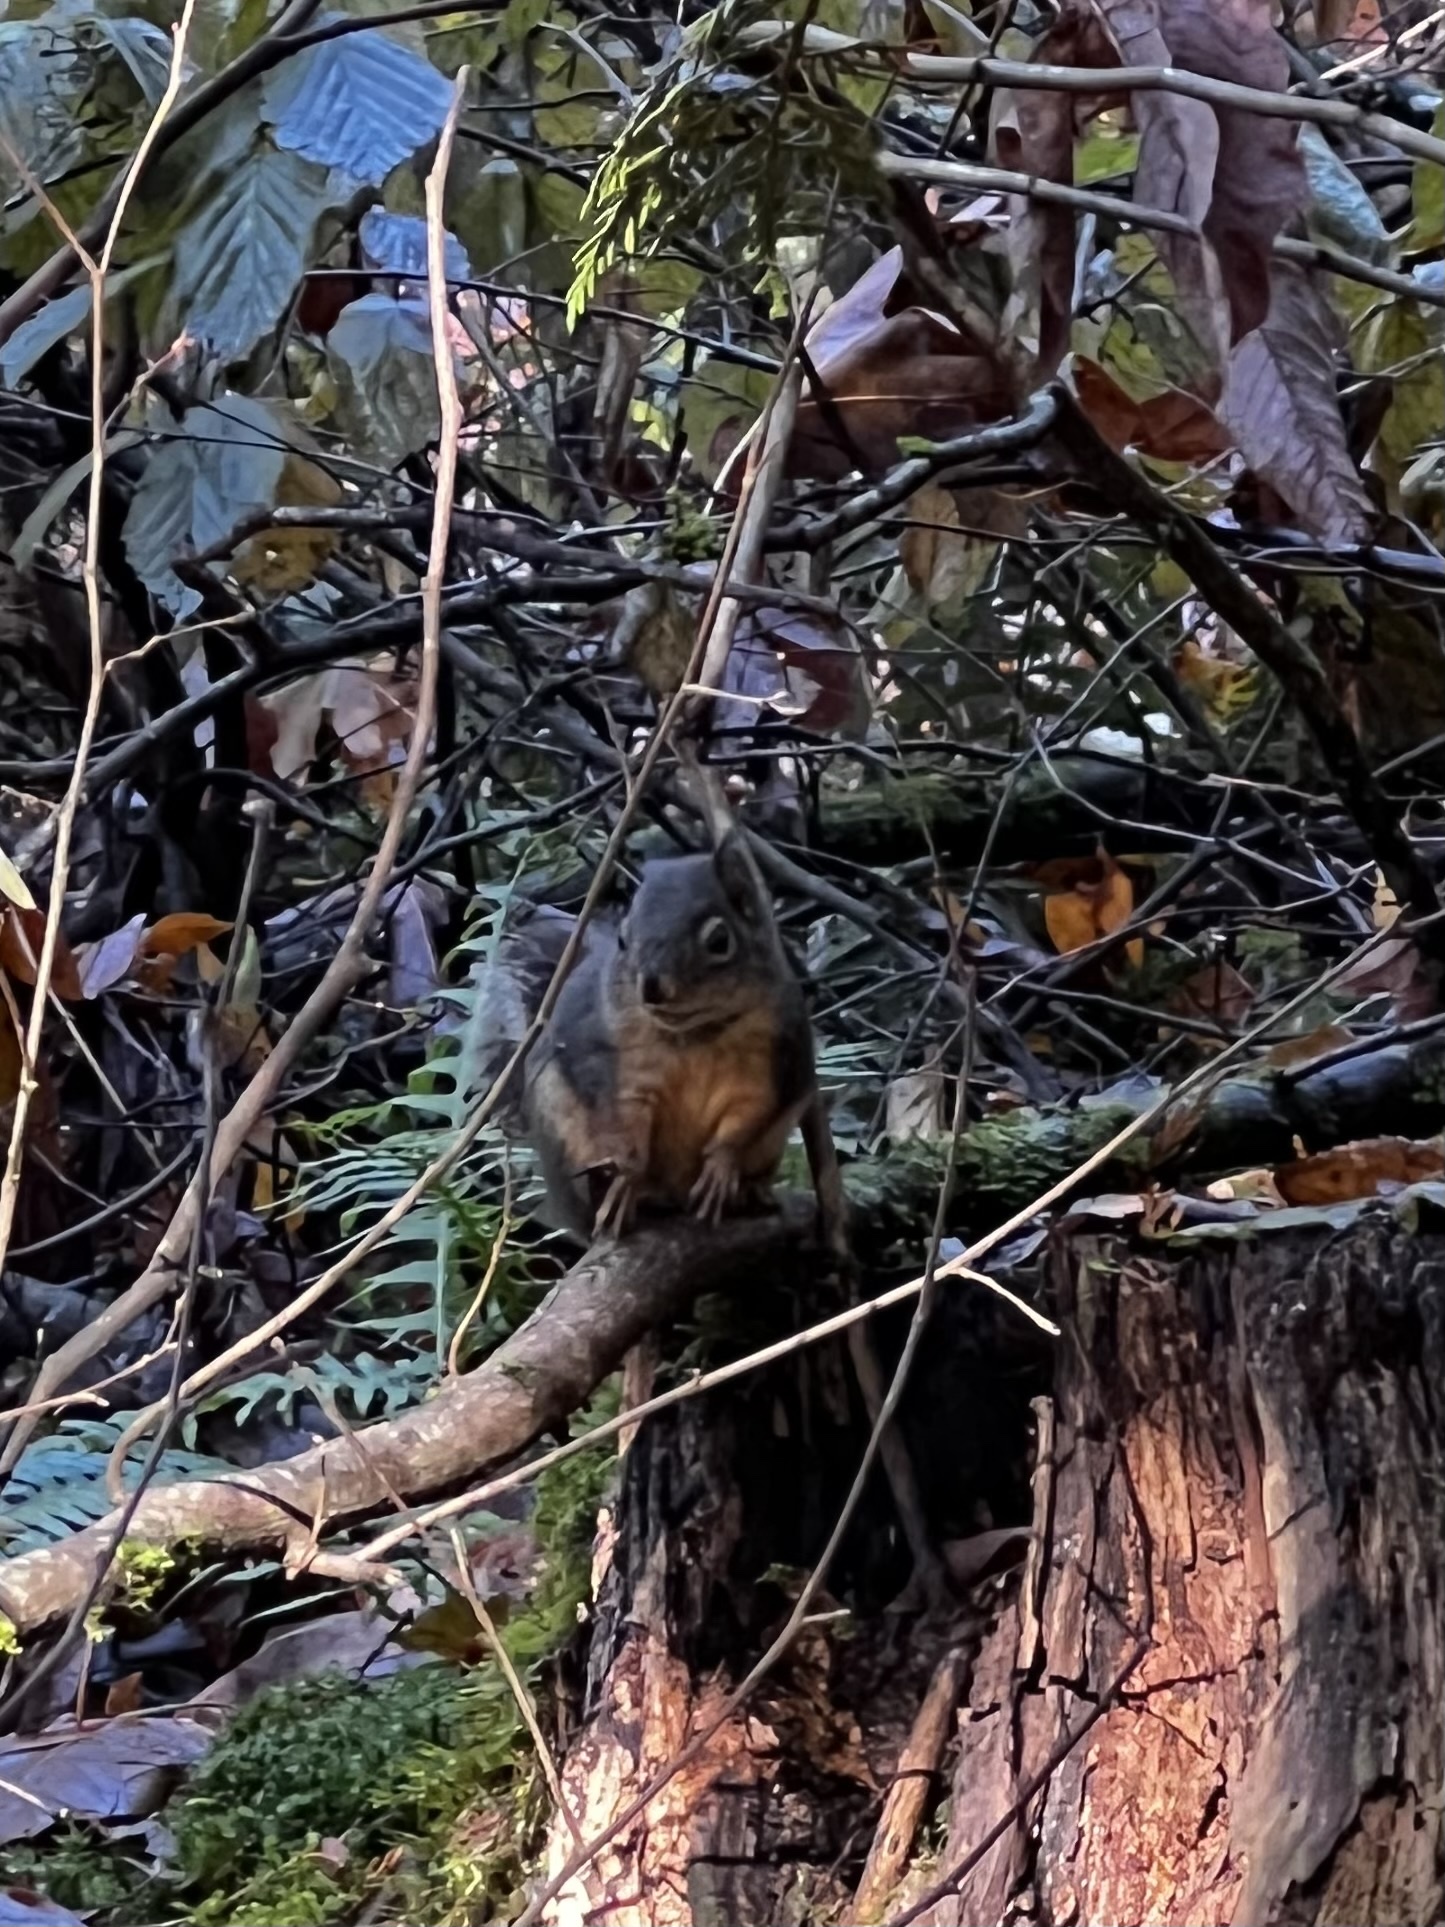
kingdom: Animalia
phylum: Chordata
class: Mammalia
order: Rodentia
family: Sciuridae
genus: Tamiasciurus
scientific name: Tamiasciurus douglasii
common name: Douglas's squirrel
